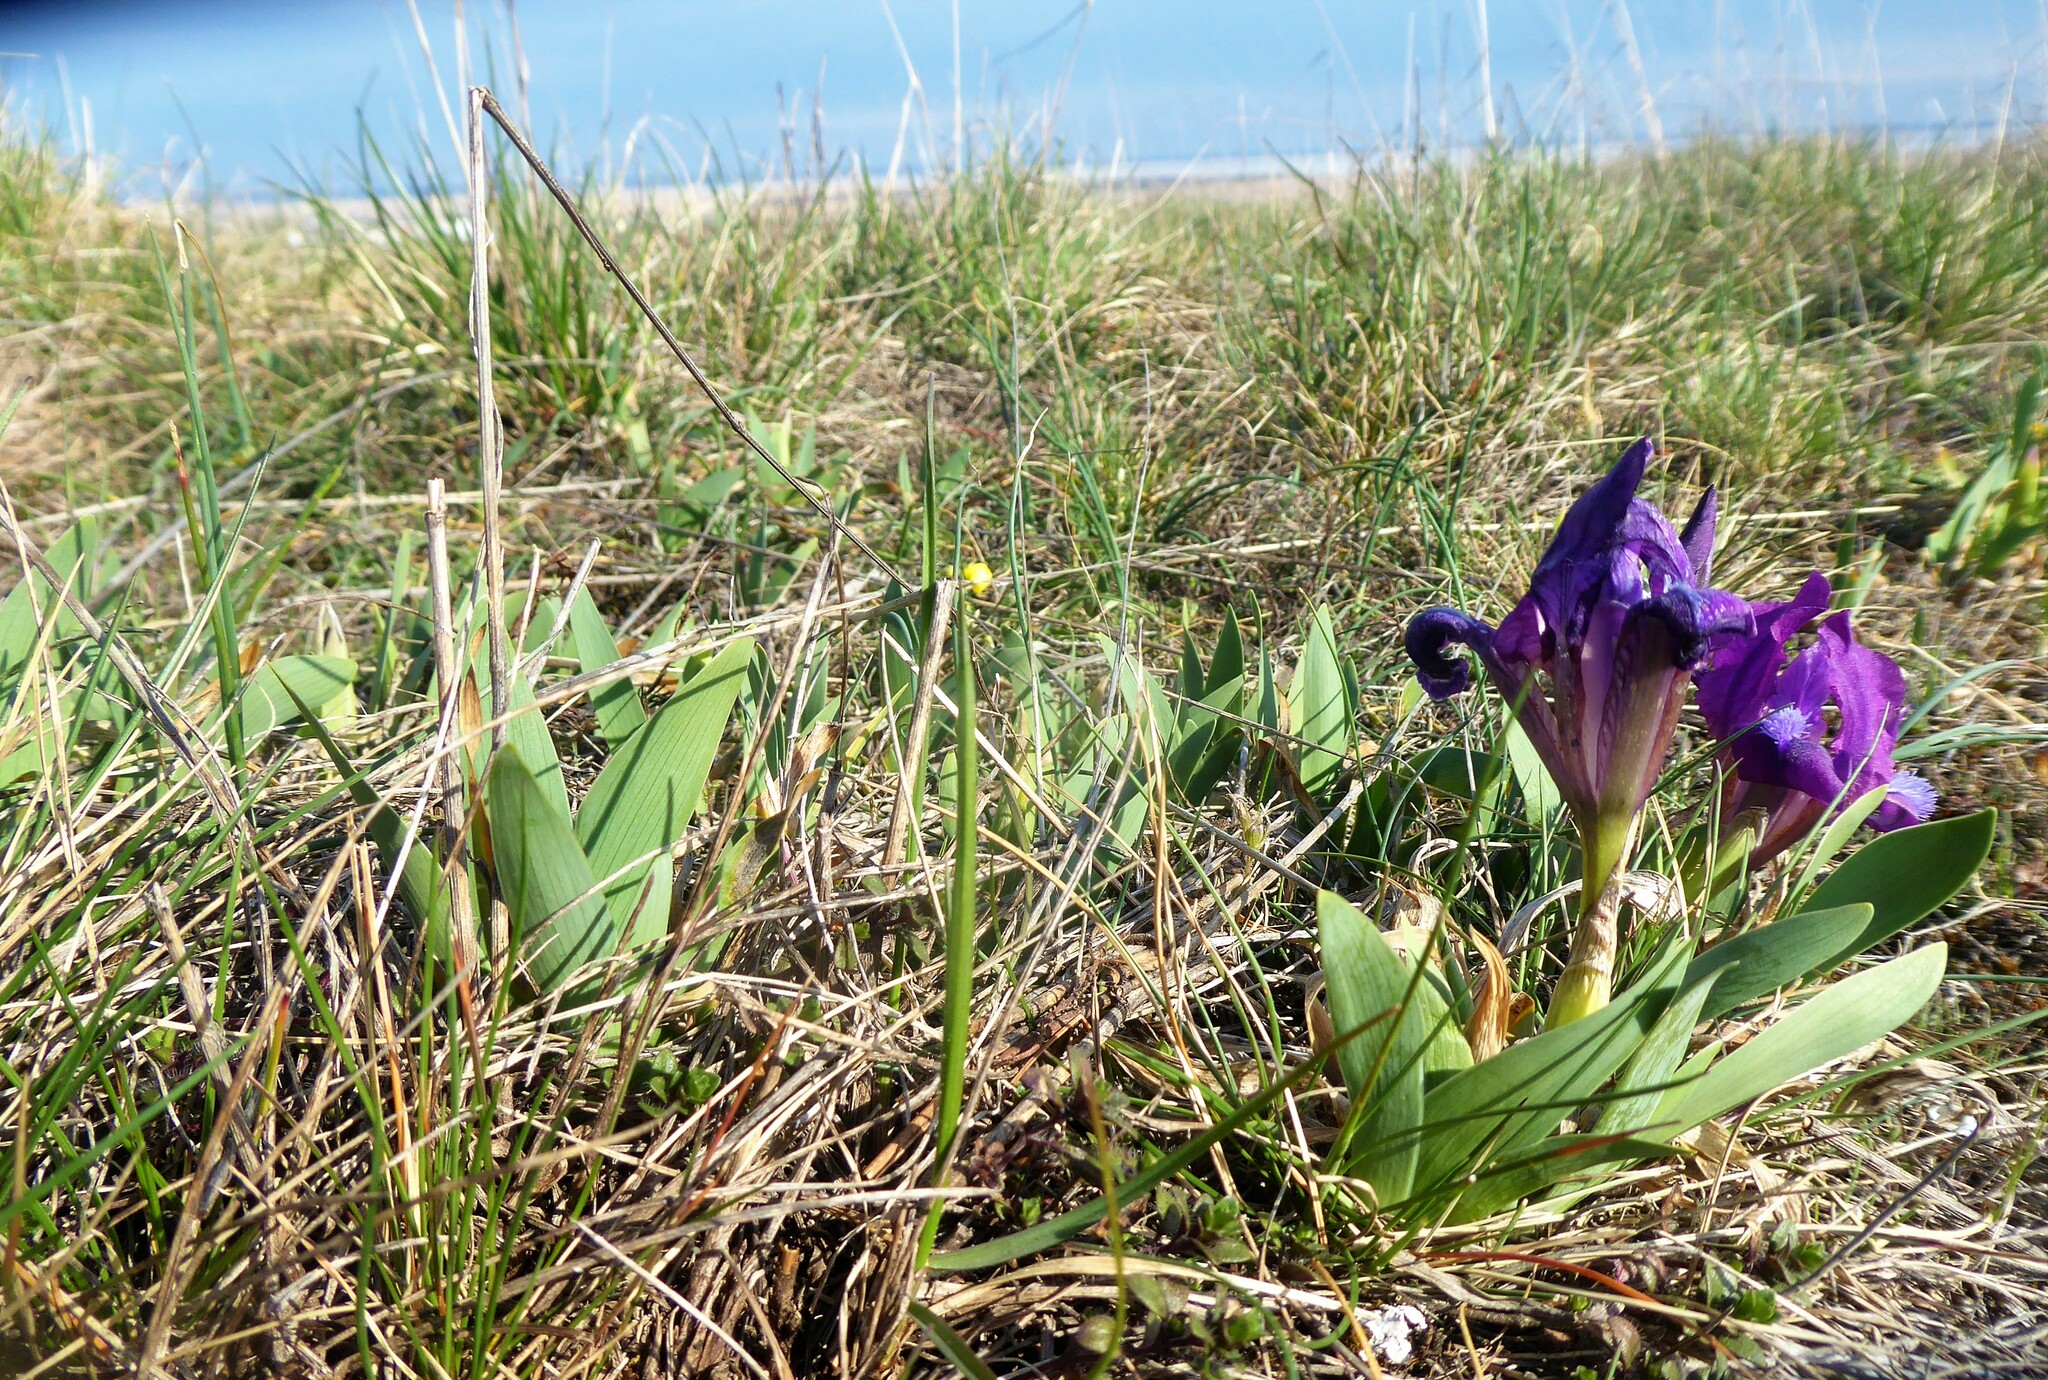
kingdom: Plantae
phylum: Tracheophyta
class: Liliopsida
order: Asparagales
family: Iridaceae
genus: Iris
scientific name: Iris pumila
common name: Dwarf iris
